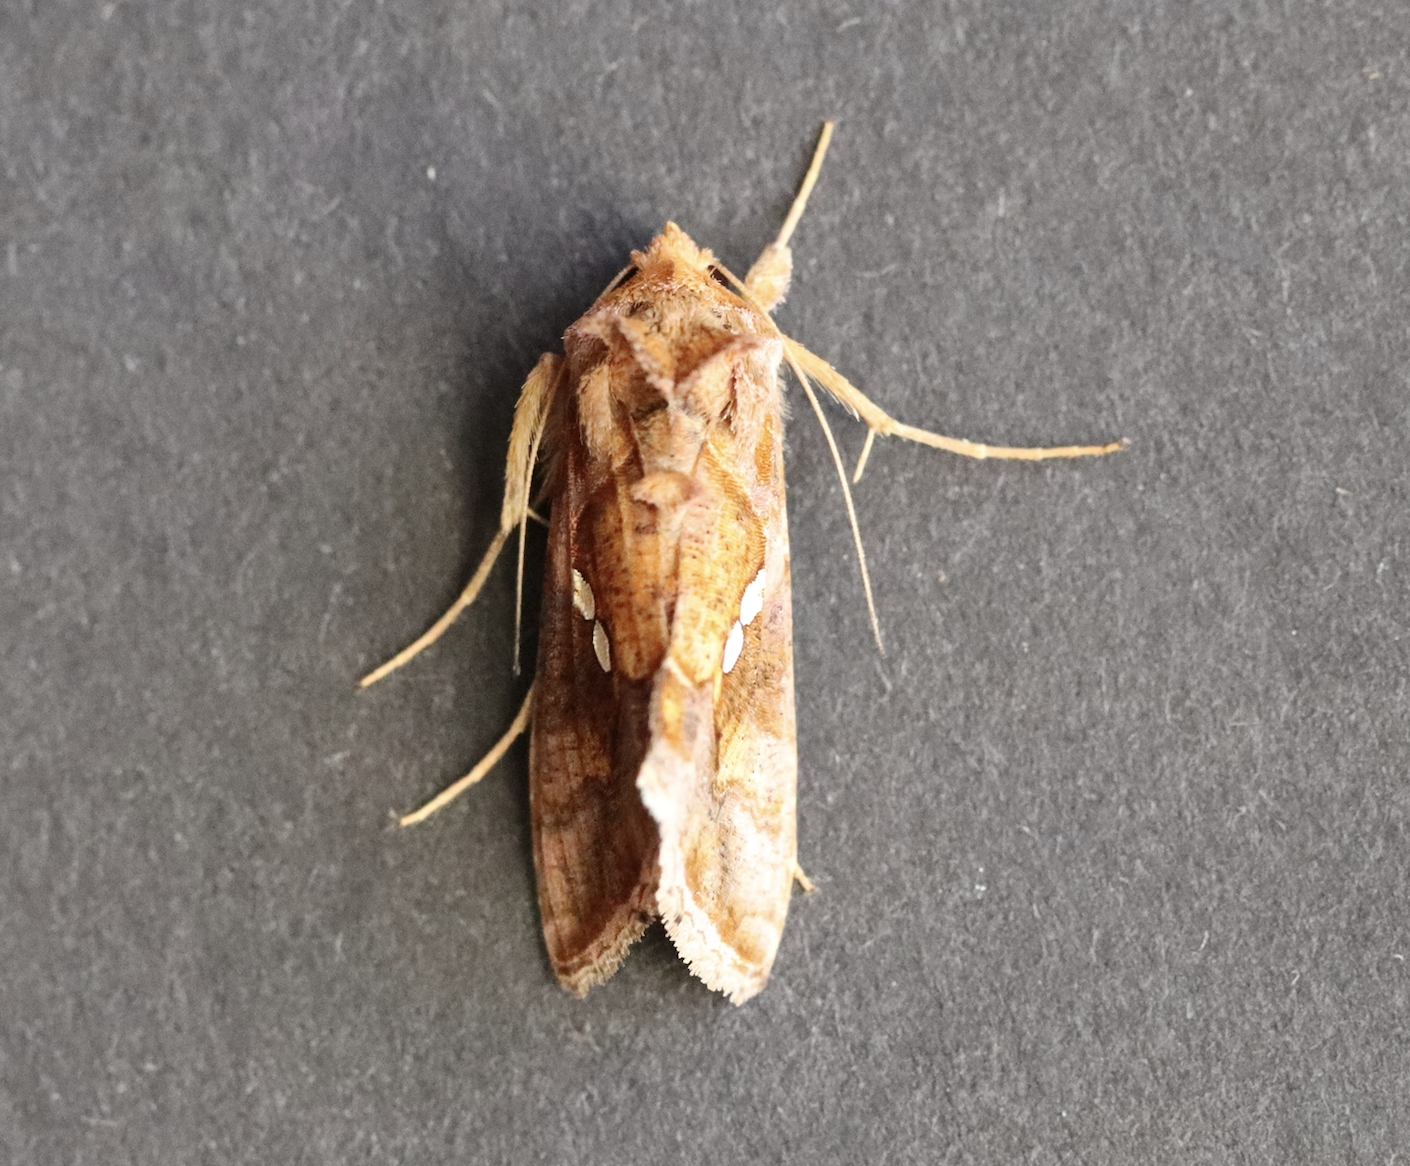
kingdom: Animalia
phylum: Arthropoda
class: Insecta
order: Lepidoptera
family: Noctuidae
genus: Chrysodeixis
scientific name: Chrysodeixis chalcites
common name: Golden twin-spot
